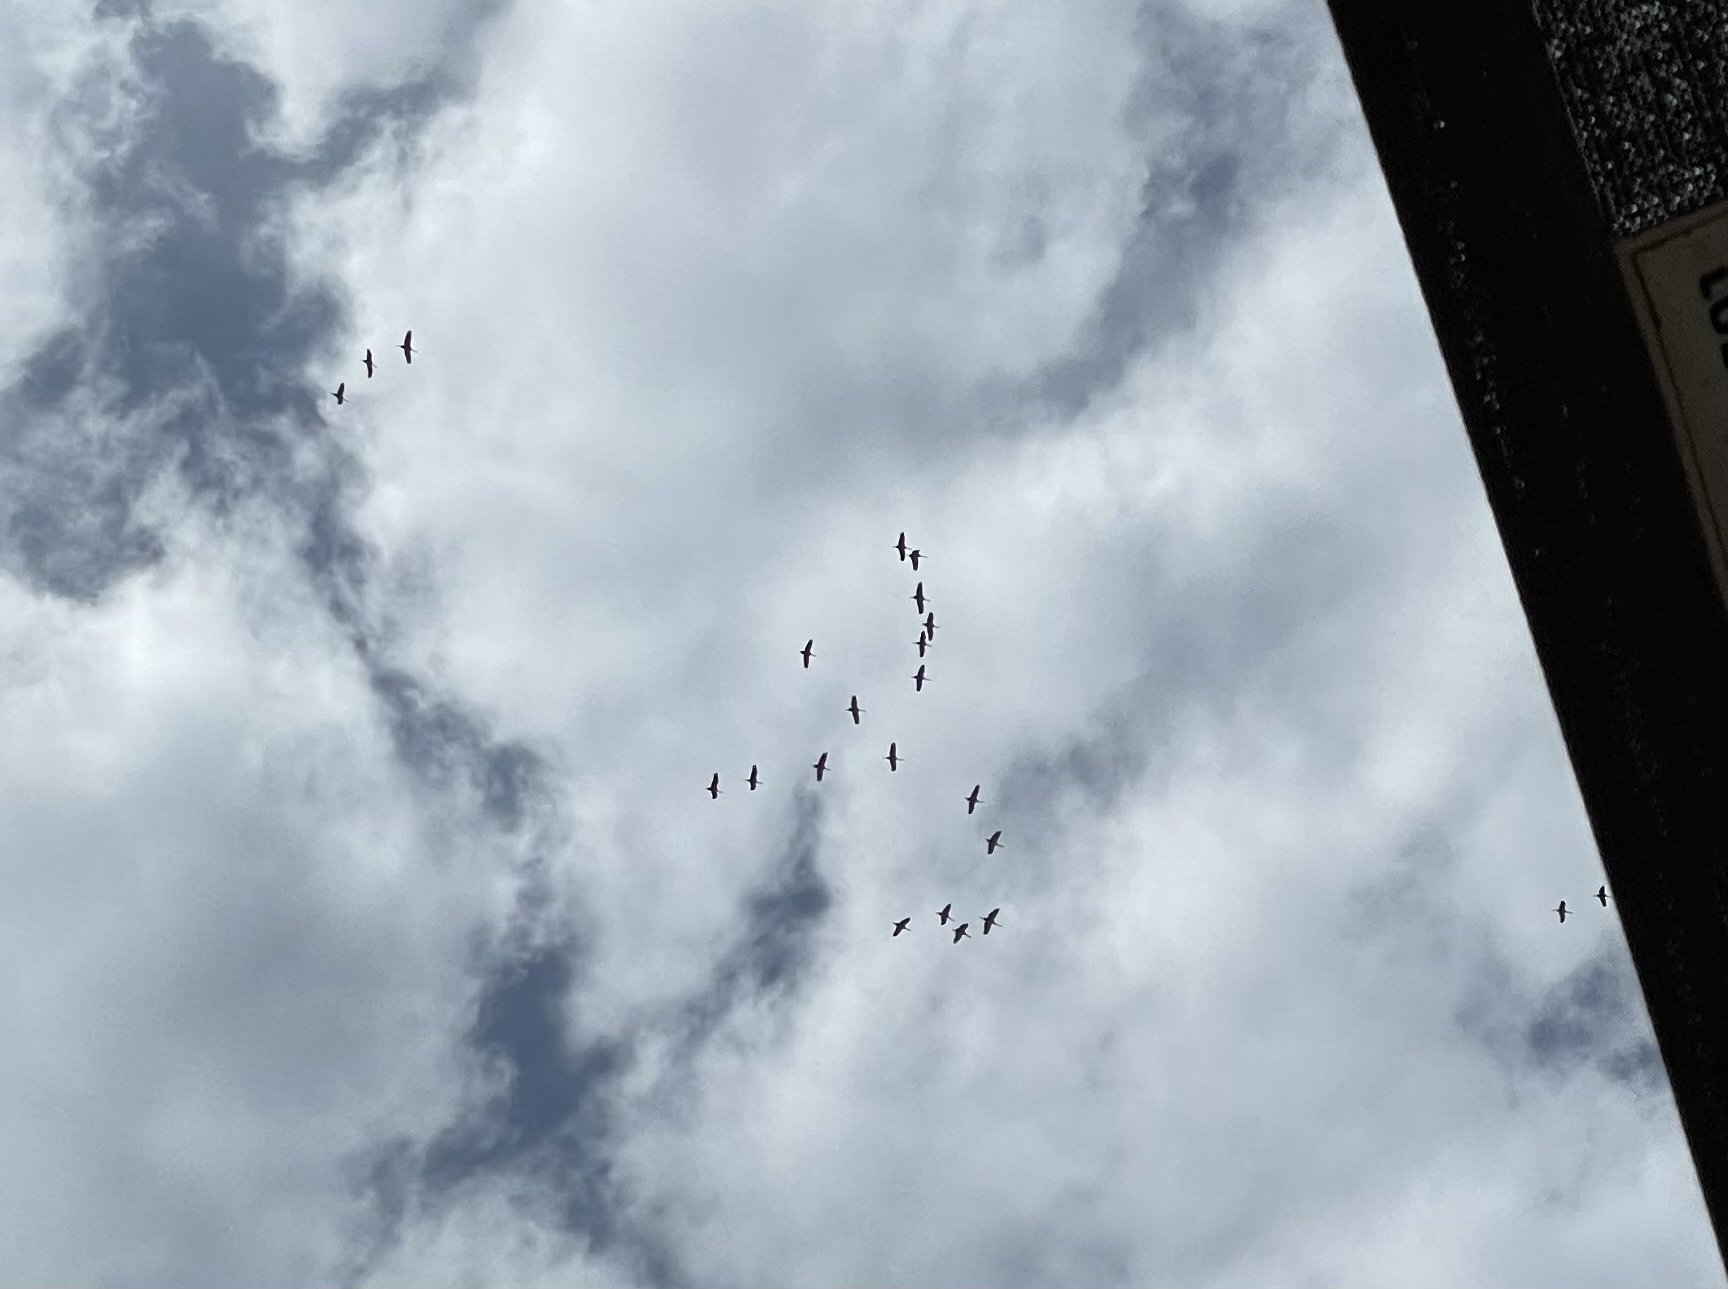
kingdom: Animalia
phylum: Chordata
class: Aves
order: Gruiformes
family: Gruidae
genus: Grus
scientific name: Grus canadensis
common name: Sandhill crane
